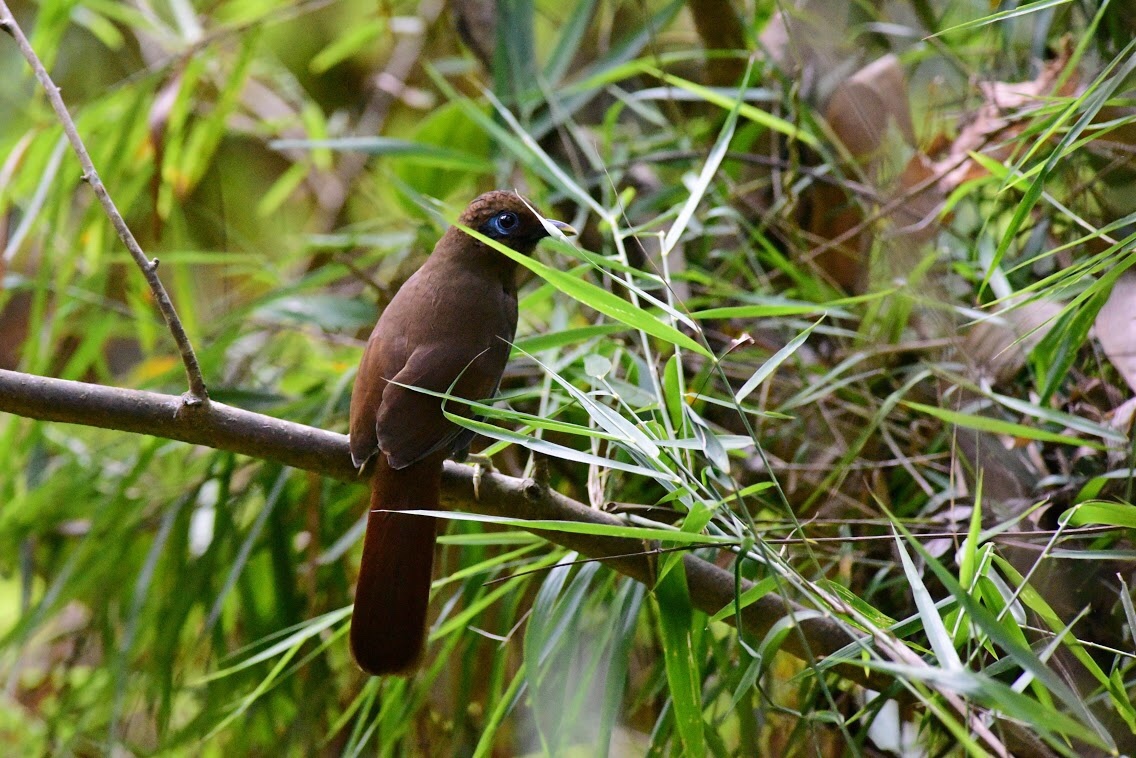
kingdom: Animalia
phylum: Chordata
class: Aves
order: Passeriformes
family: Leiothrichidae
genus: Garrulax
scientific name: Garrulax poecilorhynchus
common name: Rusty laughingthrush
